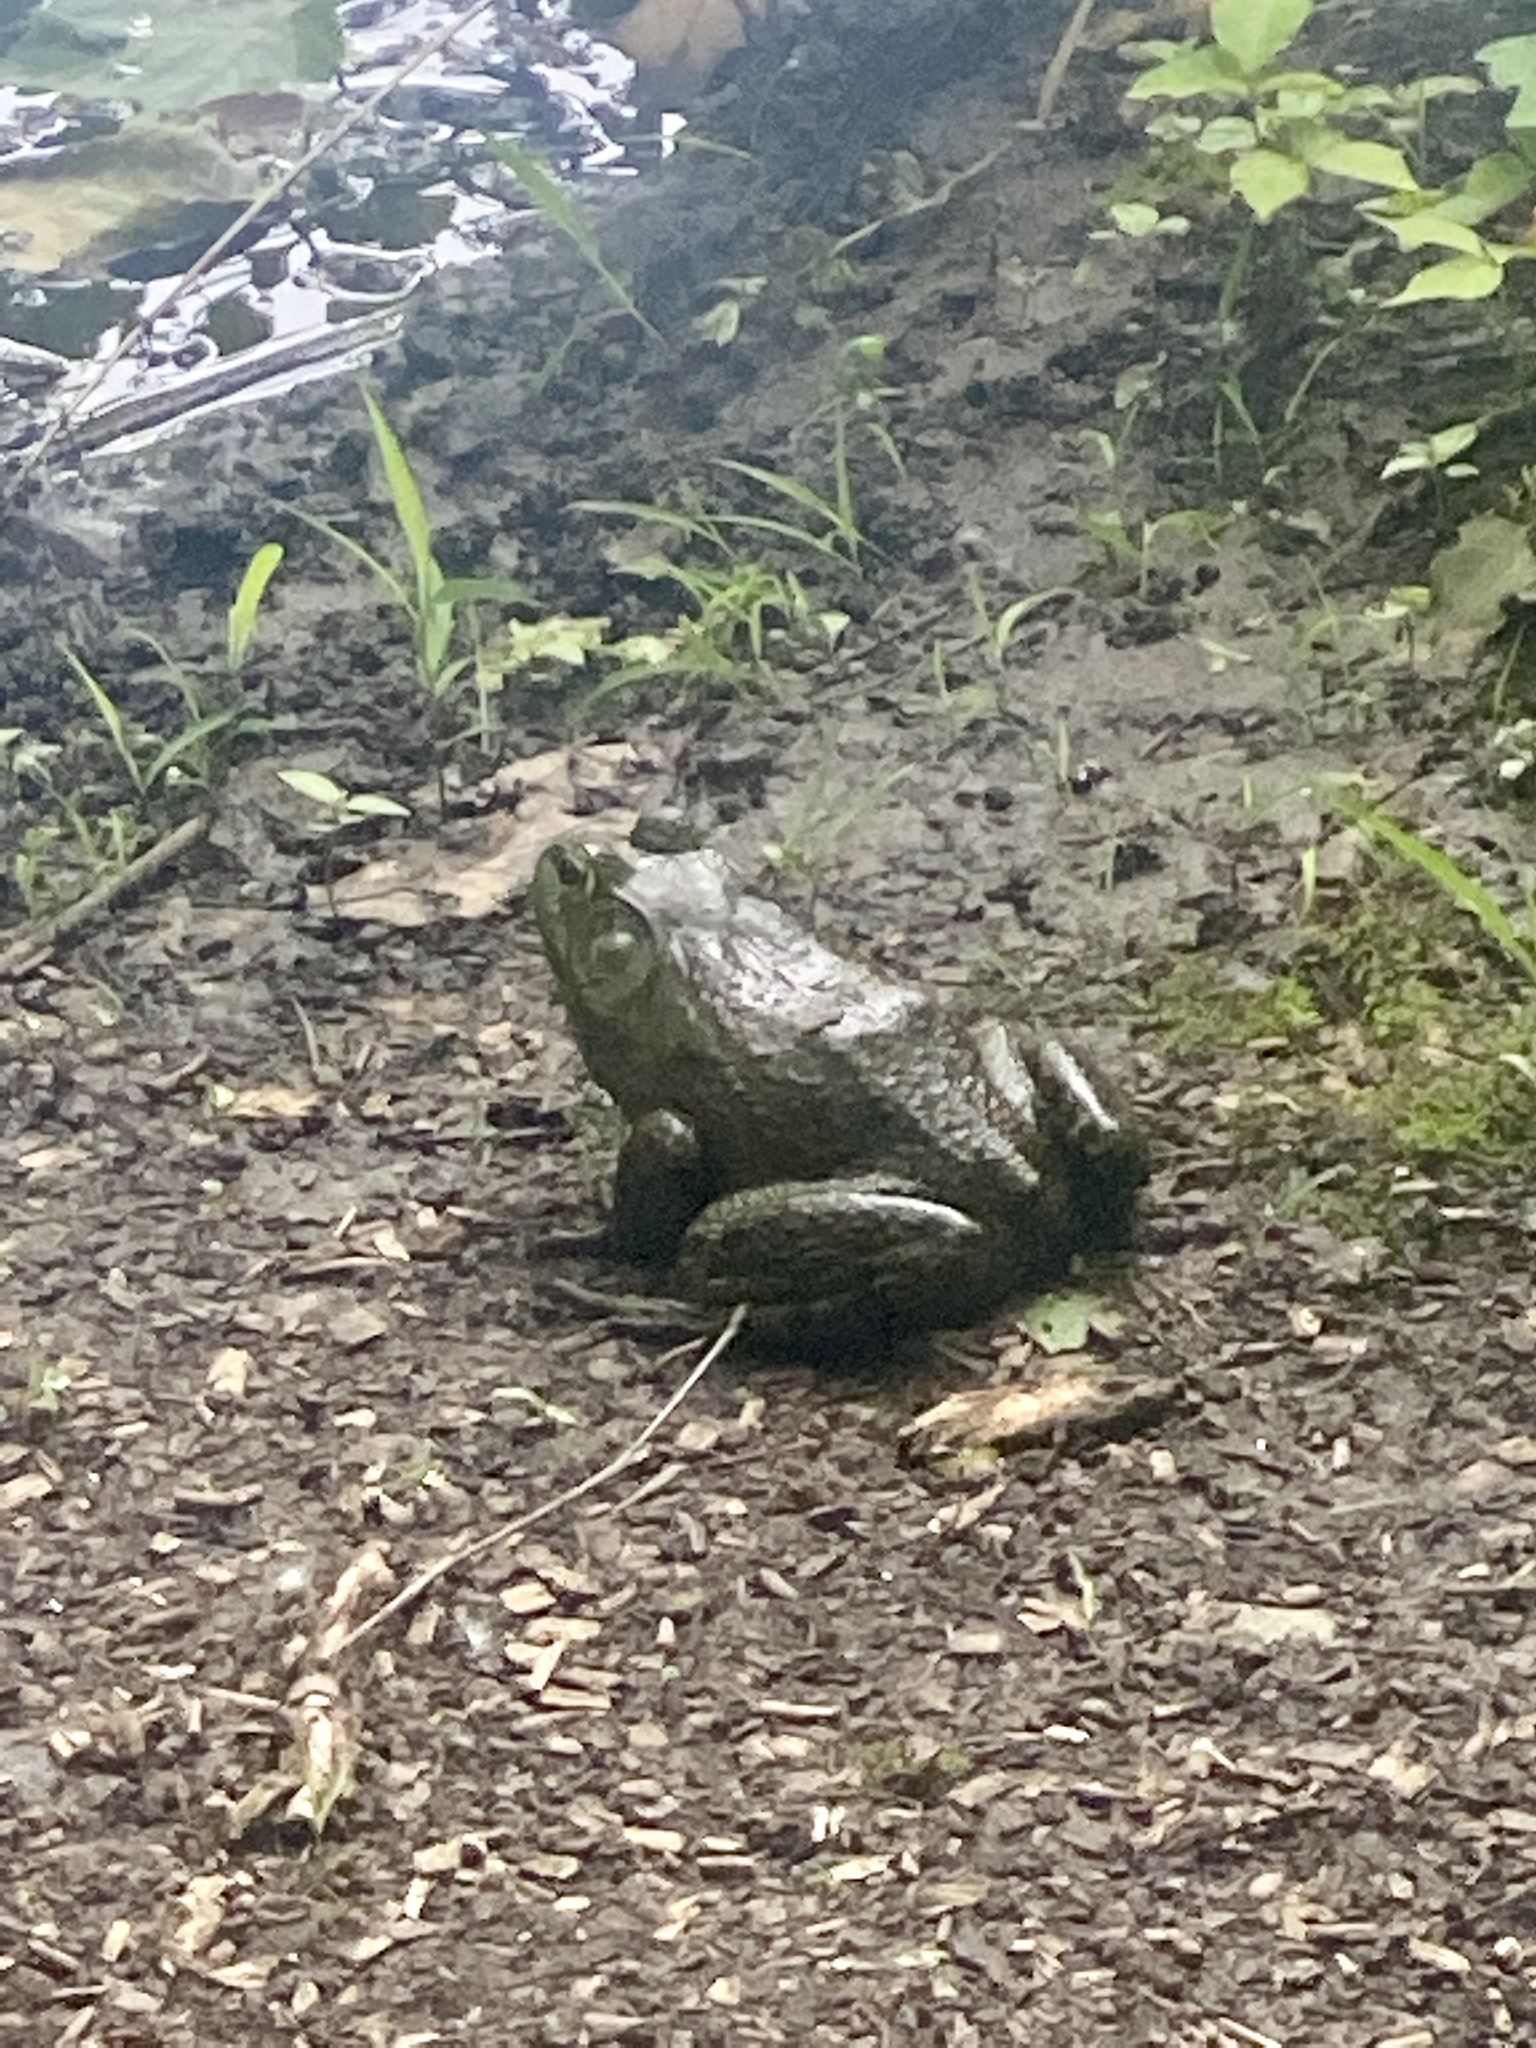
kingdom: Animalia
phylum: Chordata
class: Amphibia
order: Anura
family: Ranidae
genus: Lithobates
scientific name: Lithobates catesbeianus
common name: American bullfrog
